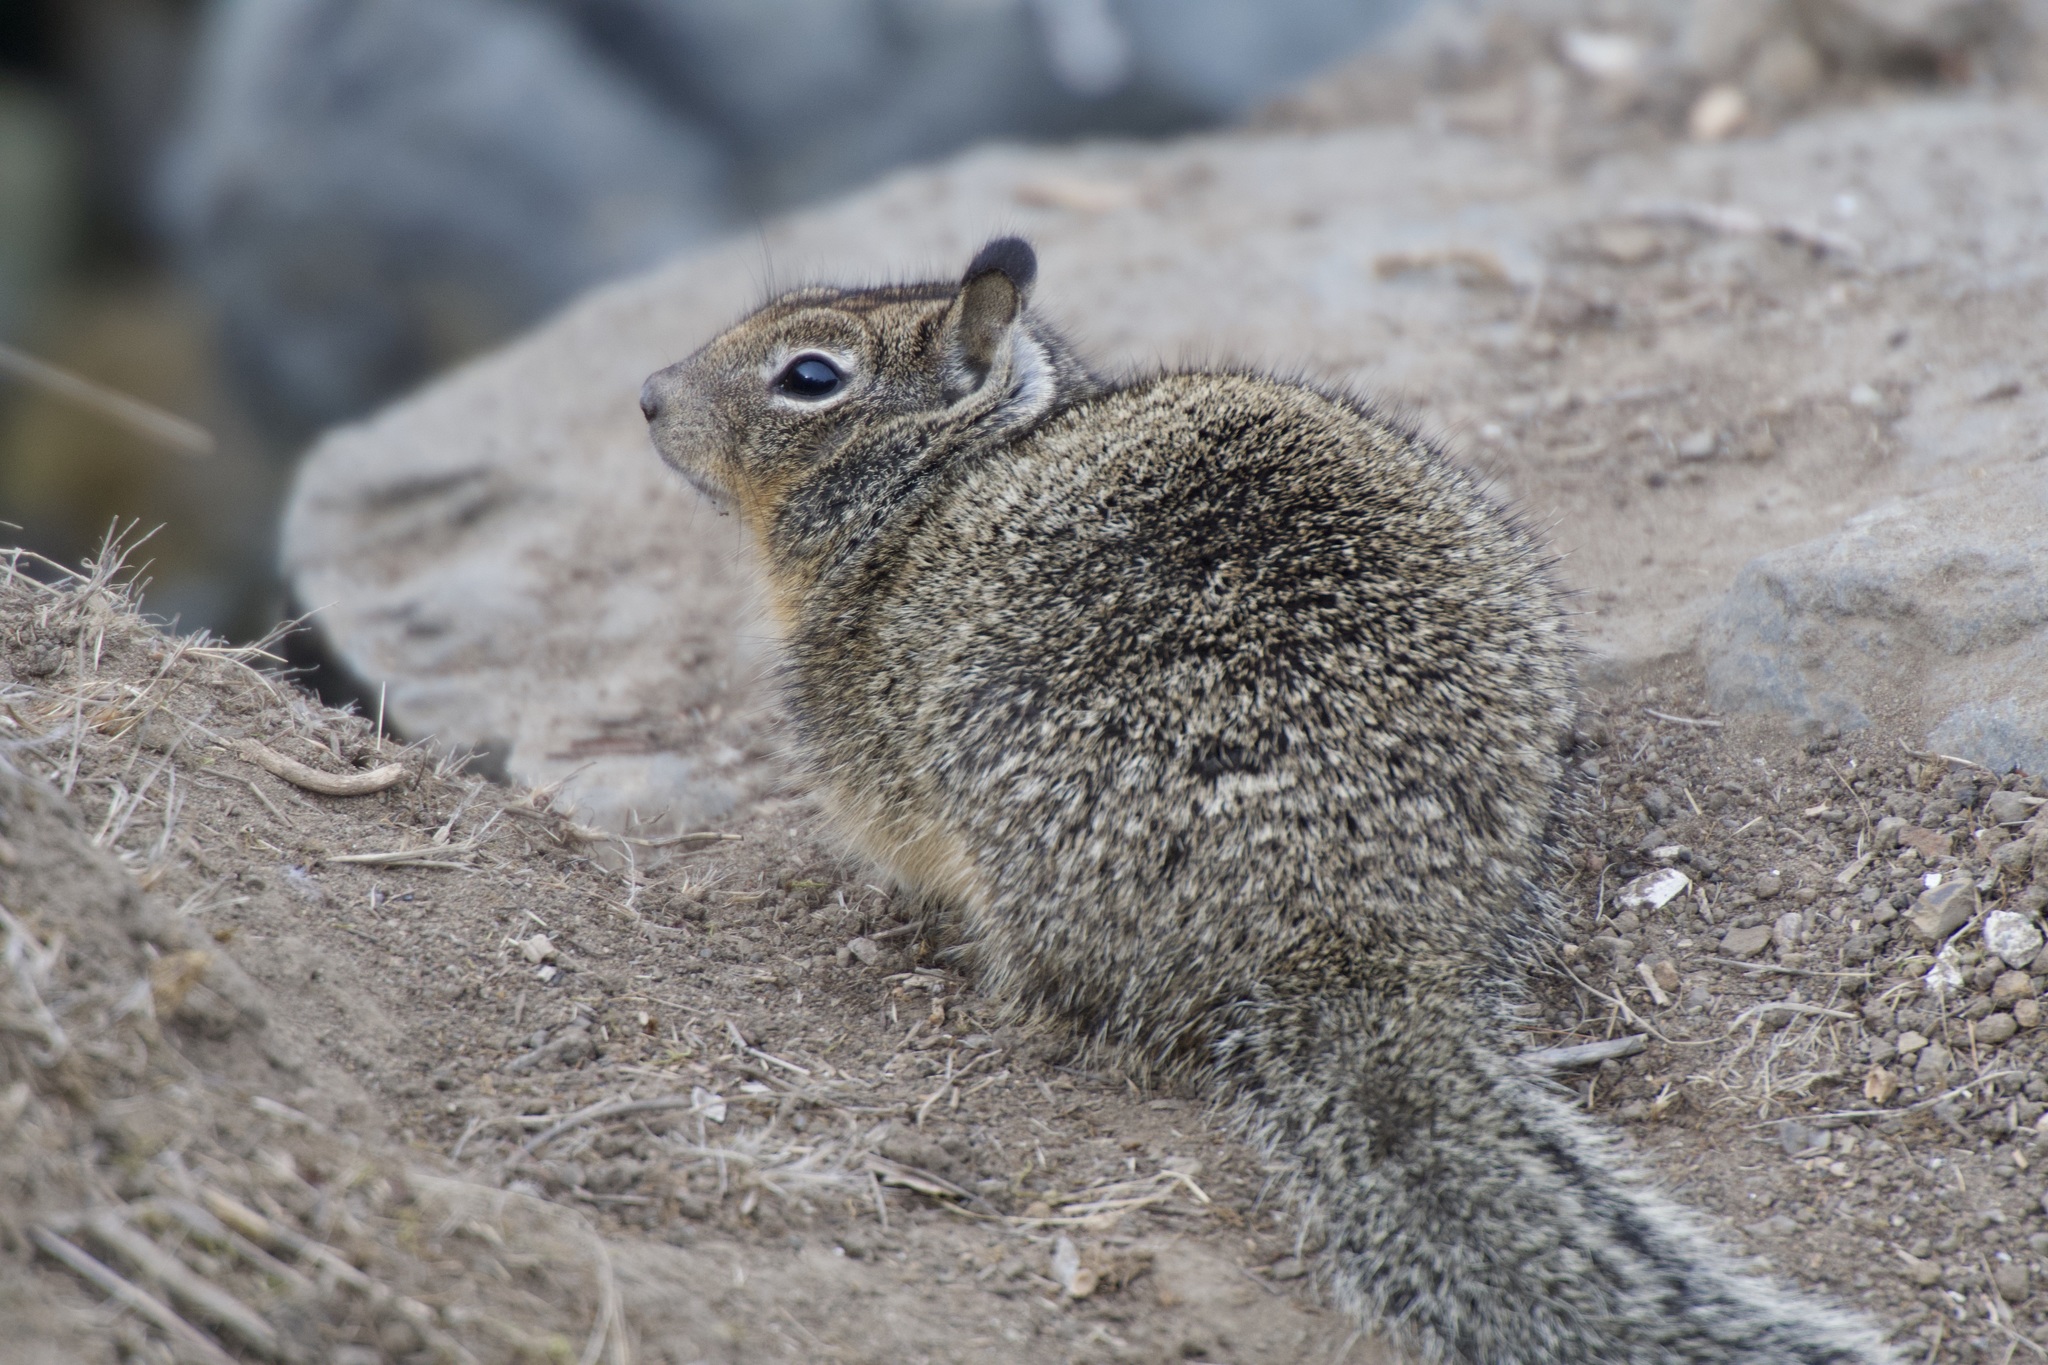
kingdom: Animalia
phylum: Chordata
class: Mammalia
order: Rodentia
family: Sciuridae
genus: Otospermophilus
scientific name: Otospermophilus beecheyi
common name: California ground squirrel
